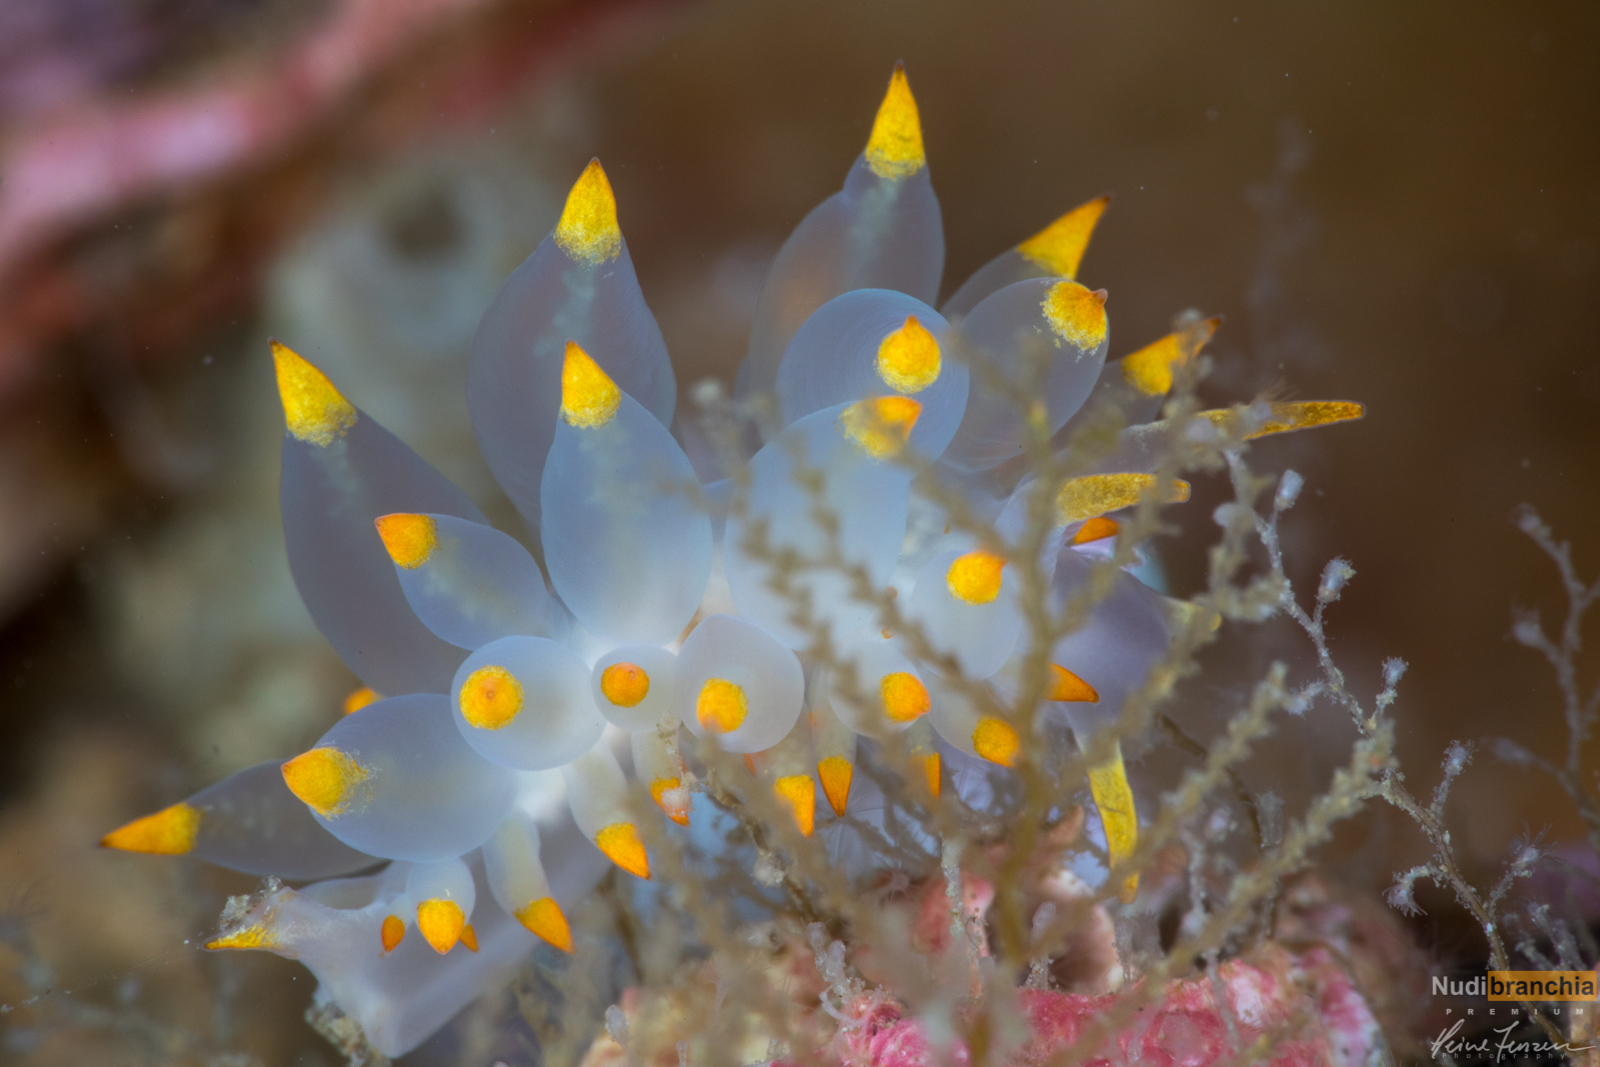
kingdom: Animalia
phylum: Mollusca
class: Gastropoda
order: Nudibranchia
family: Eubranchidae
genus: Amphorina
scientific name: Amphorina farrani
